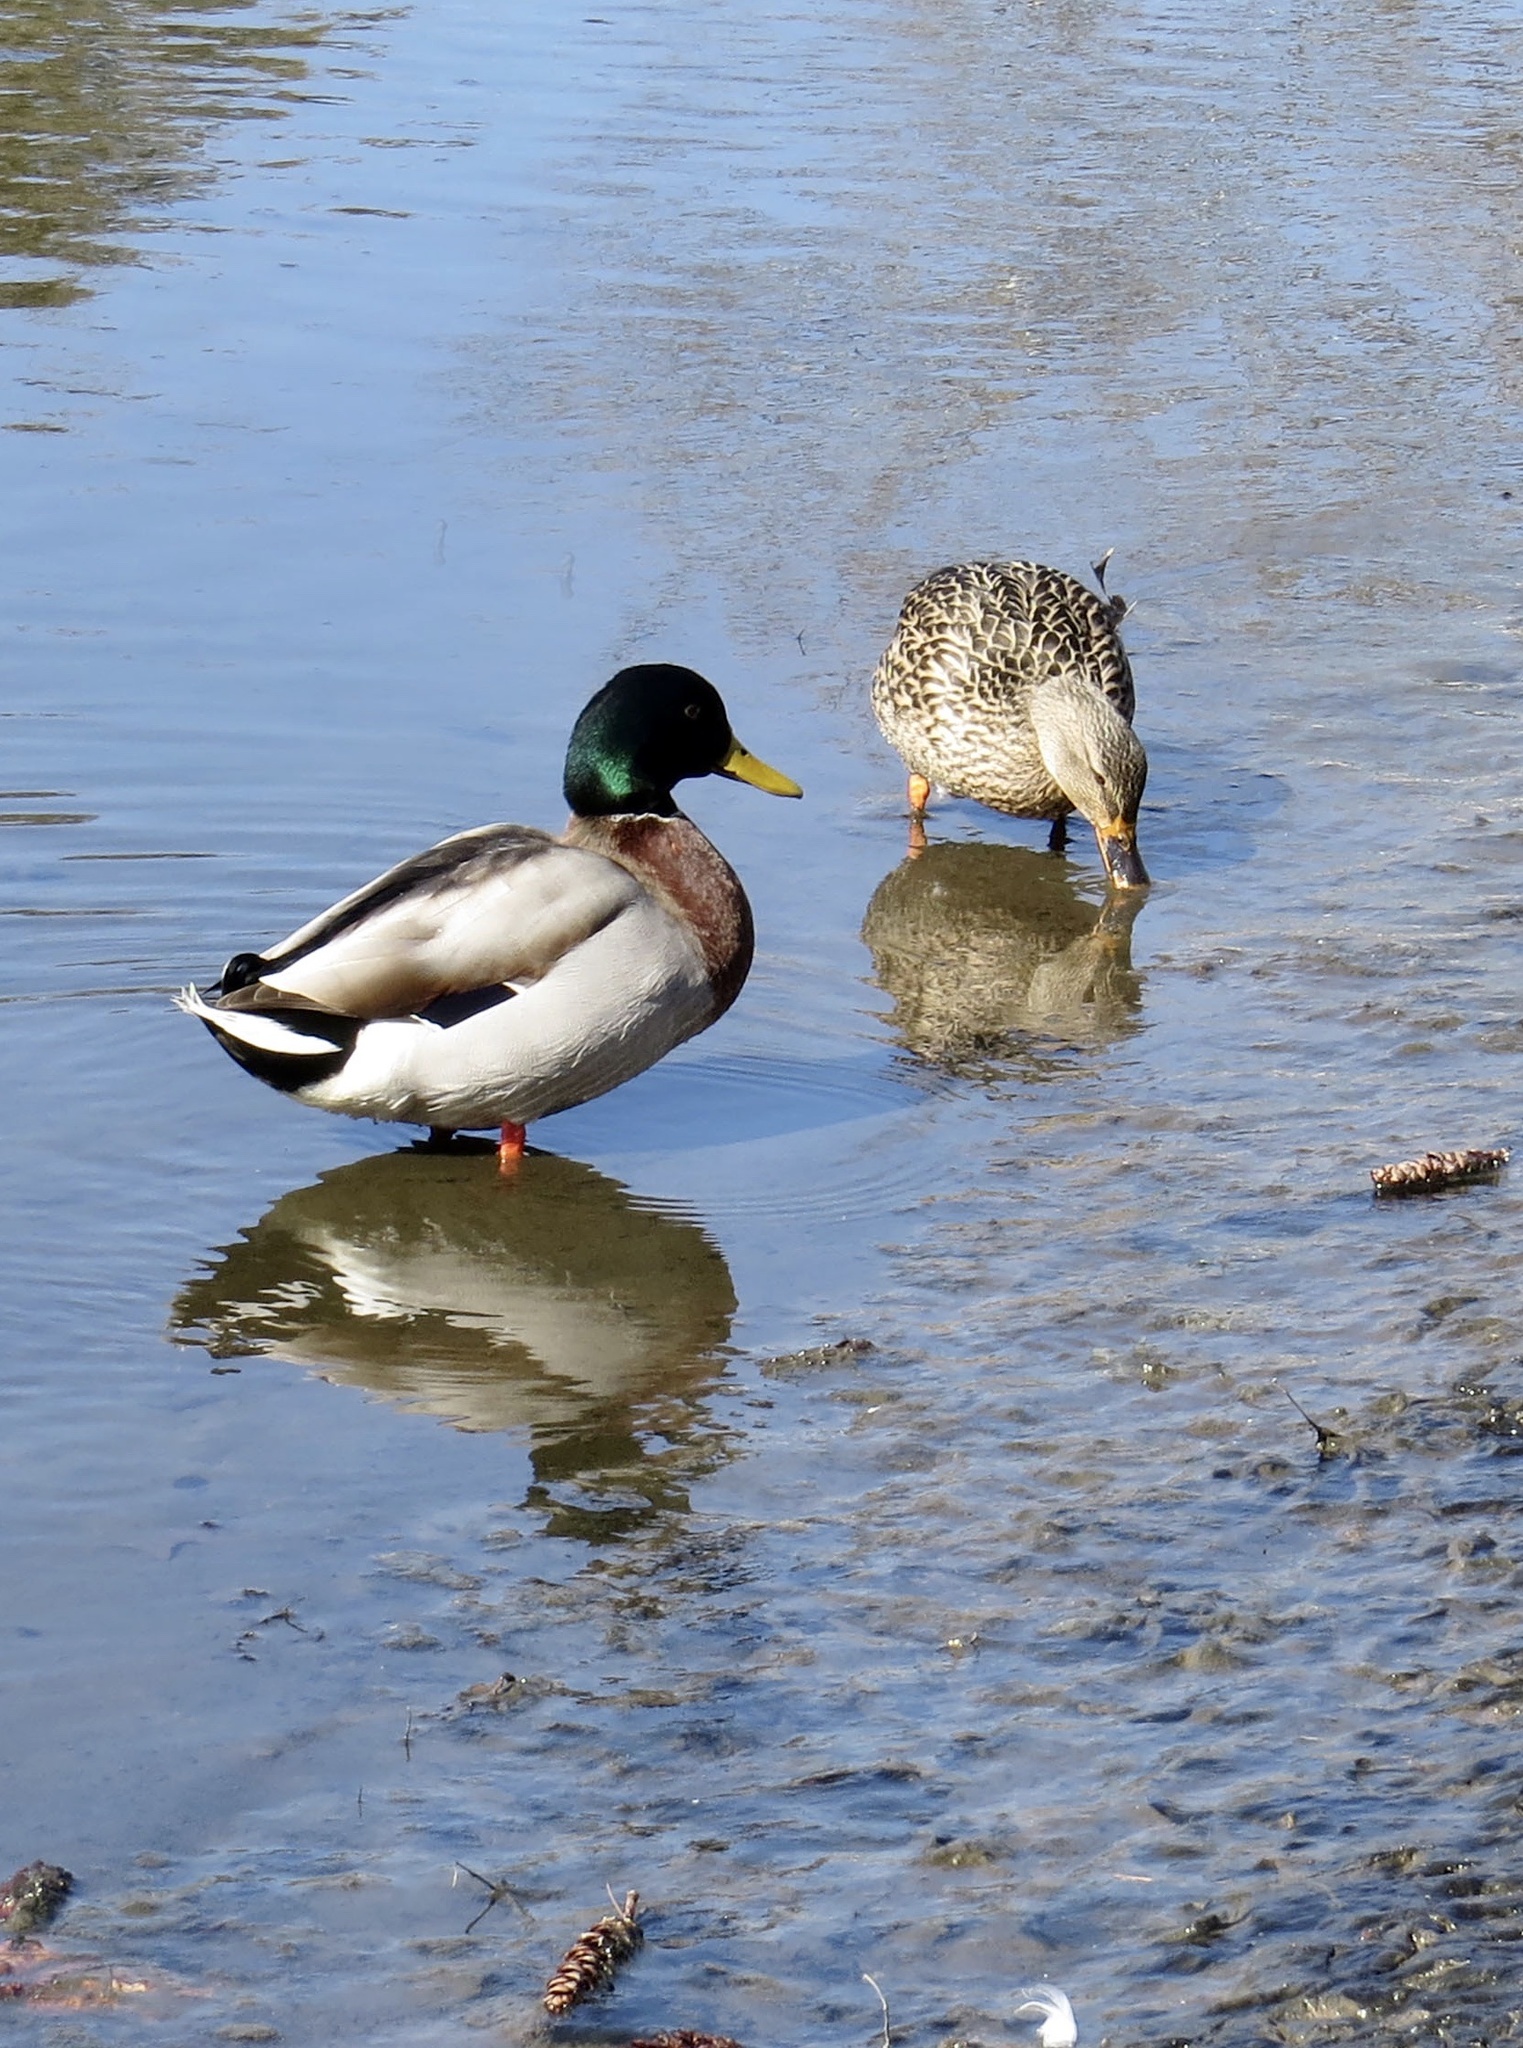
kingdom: Animalia
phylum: Chordata
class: Aves
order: Anseriformes
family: Anatidae
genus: Anas
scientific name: Anas platyrhynchos
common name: Mallard
